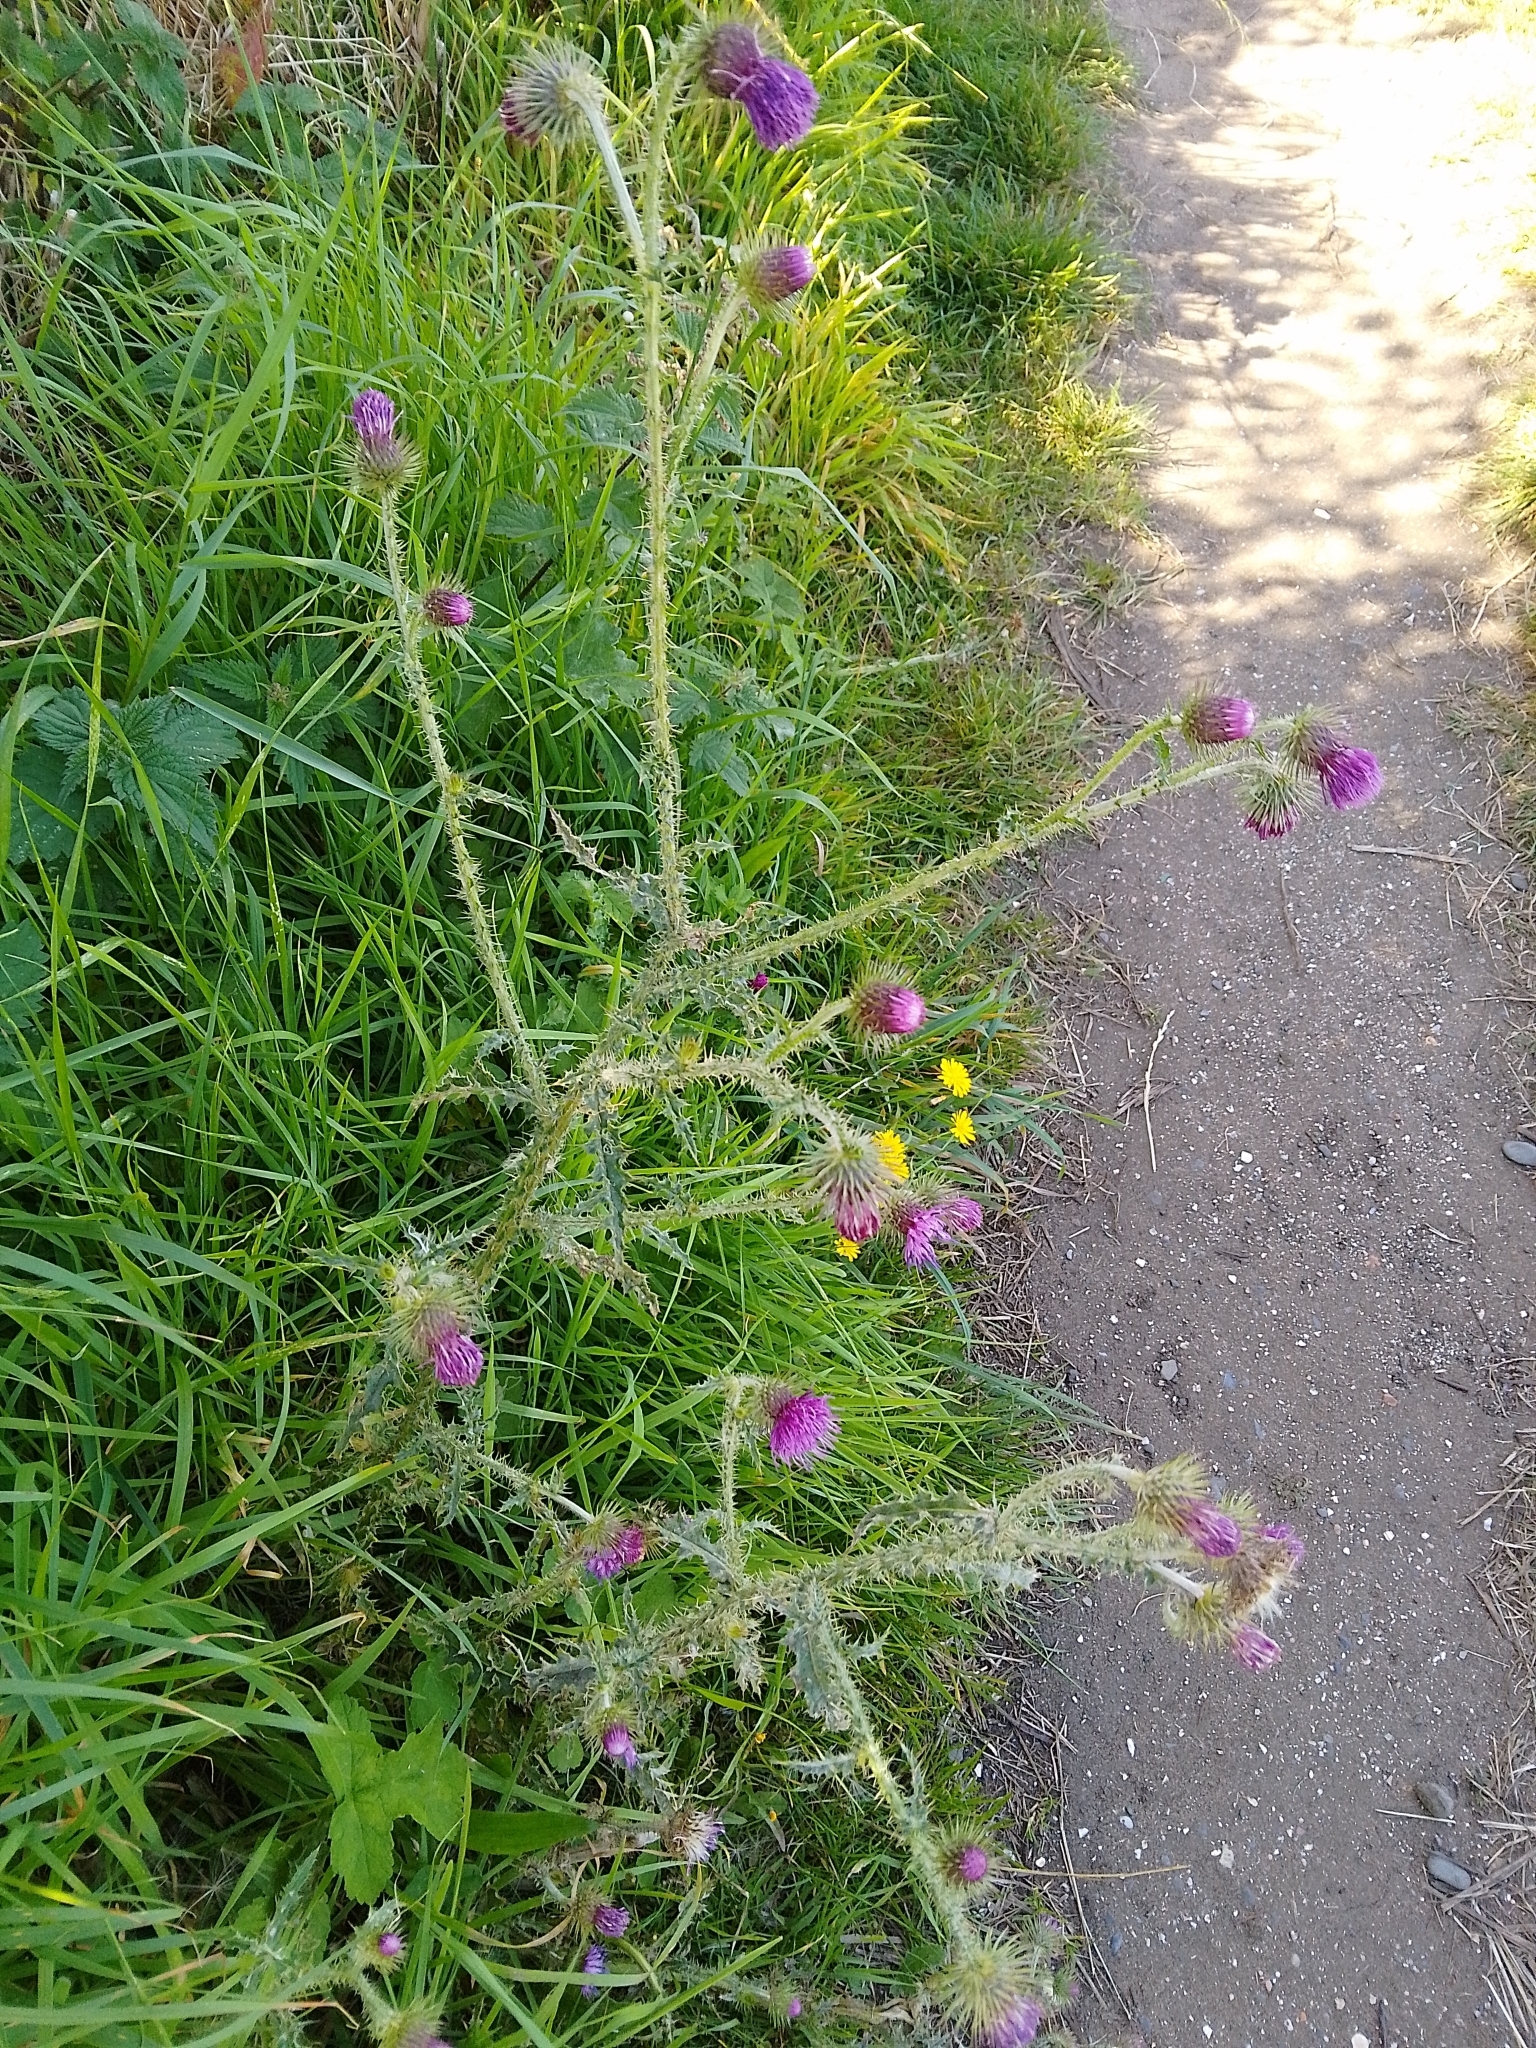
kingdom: Plantae
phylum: Tracheophyta
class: Magnoliopsida
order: Asterales
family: Asteraceae
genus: Carduus
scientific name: Carduus crispus
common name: Welted thistle
